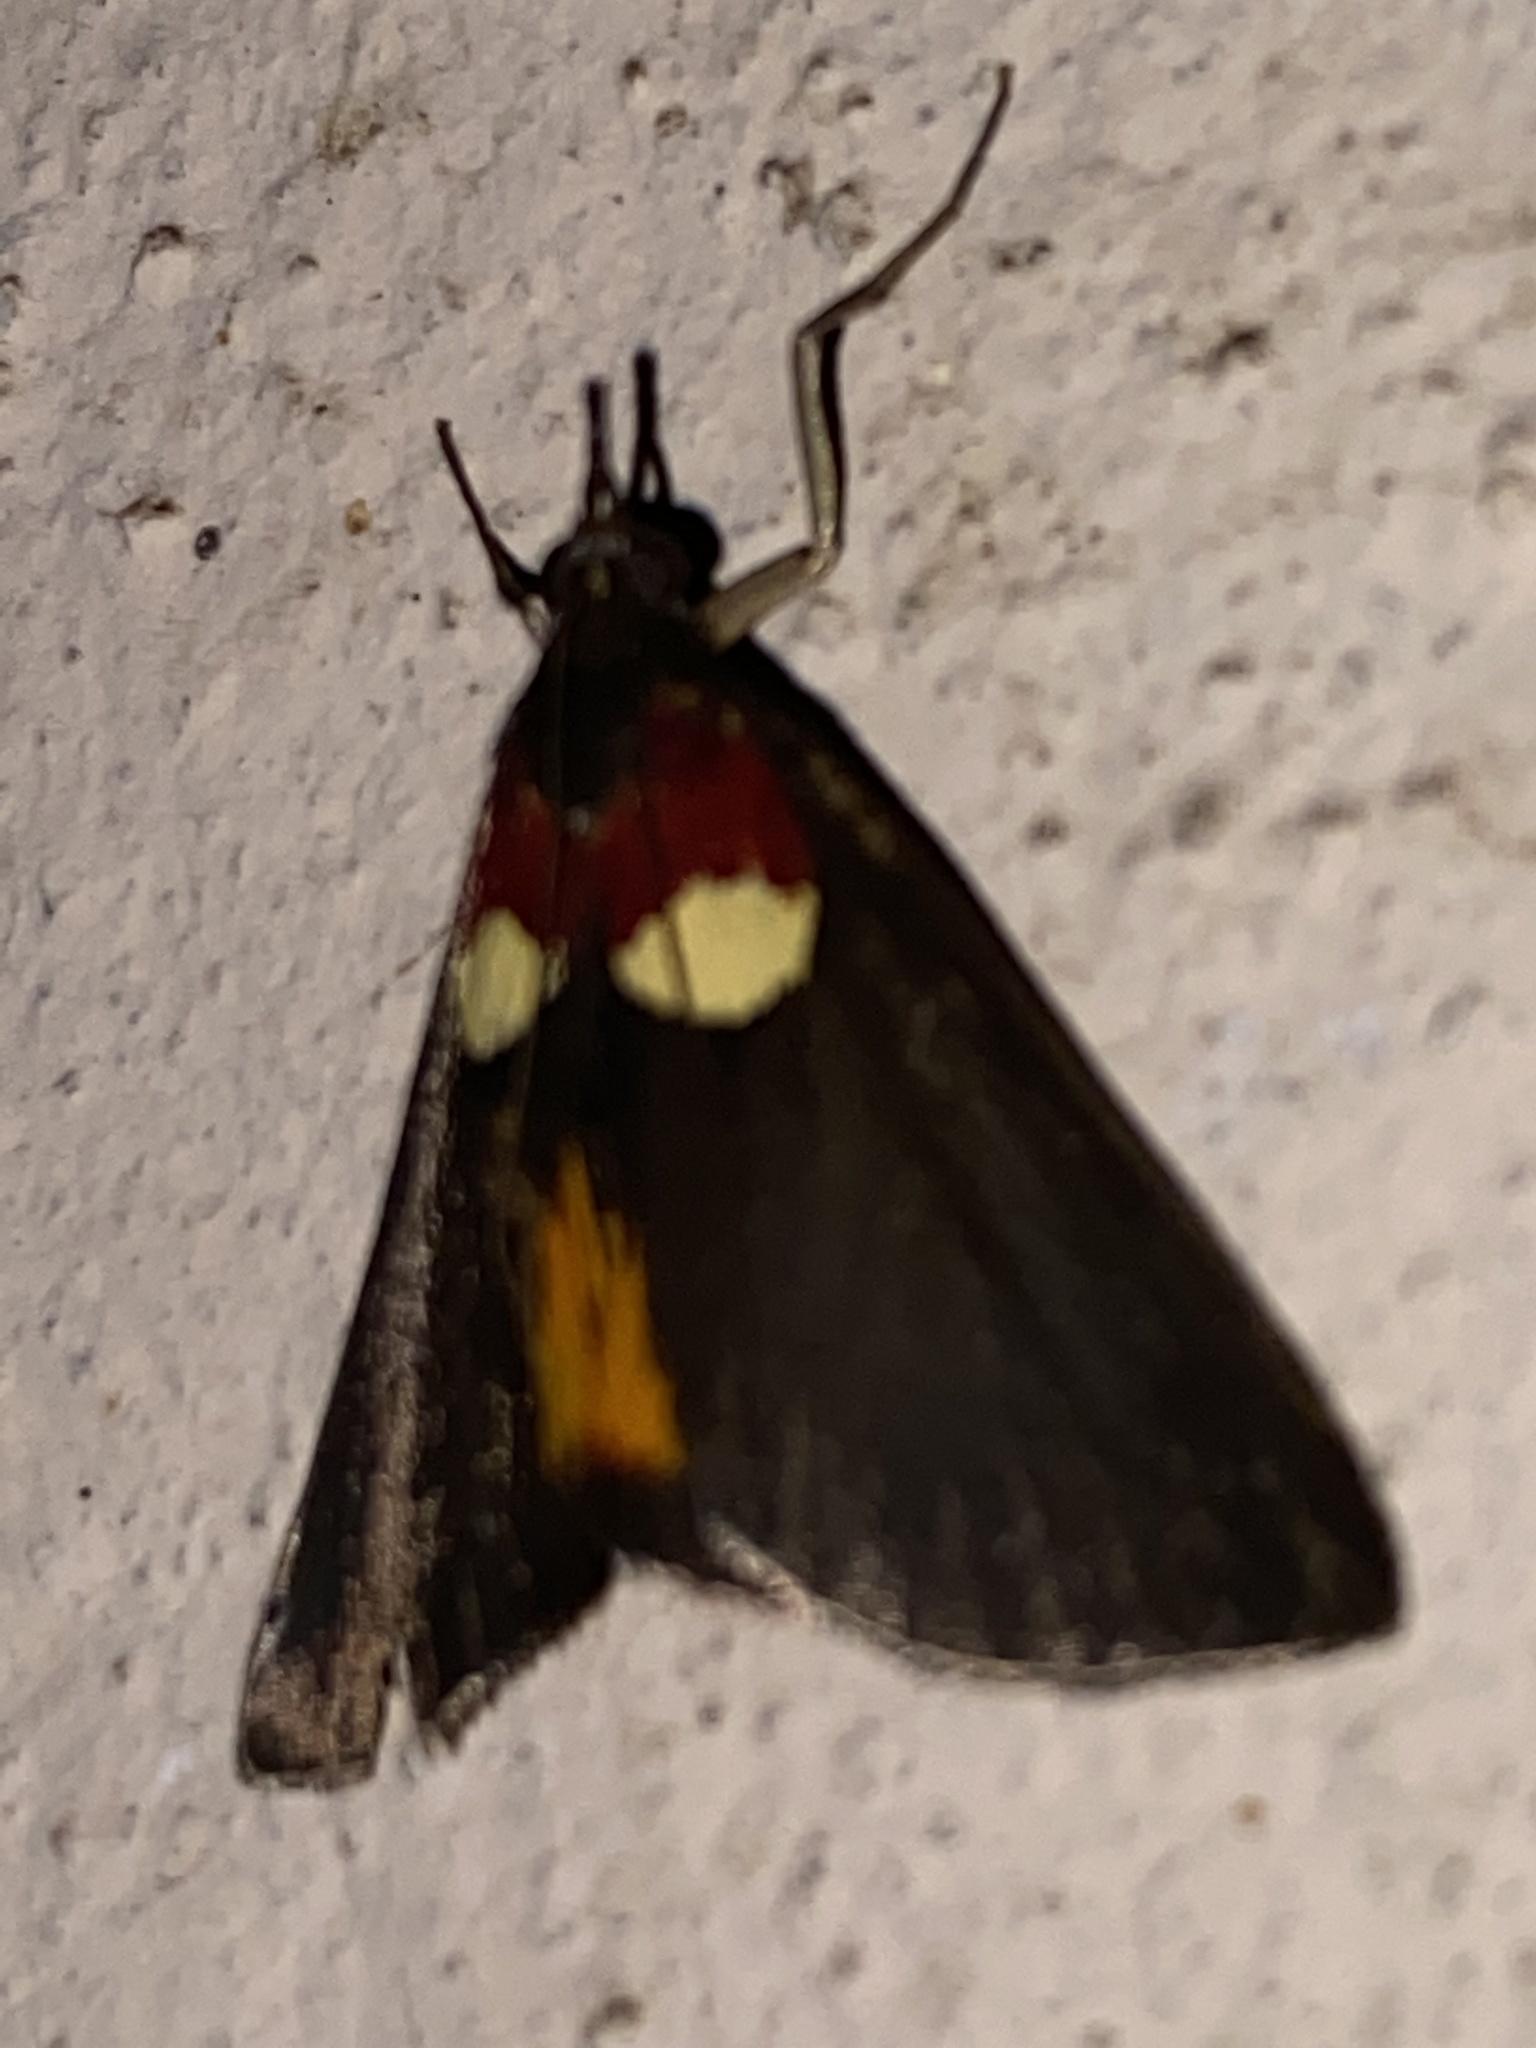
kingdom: Animalia
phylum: Arthropoda
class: Insecta
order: Lepidoptera
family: Pyralidae
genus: Semnia
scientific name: Semnia auritalis
